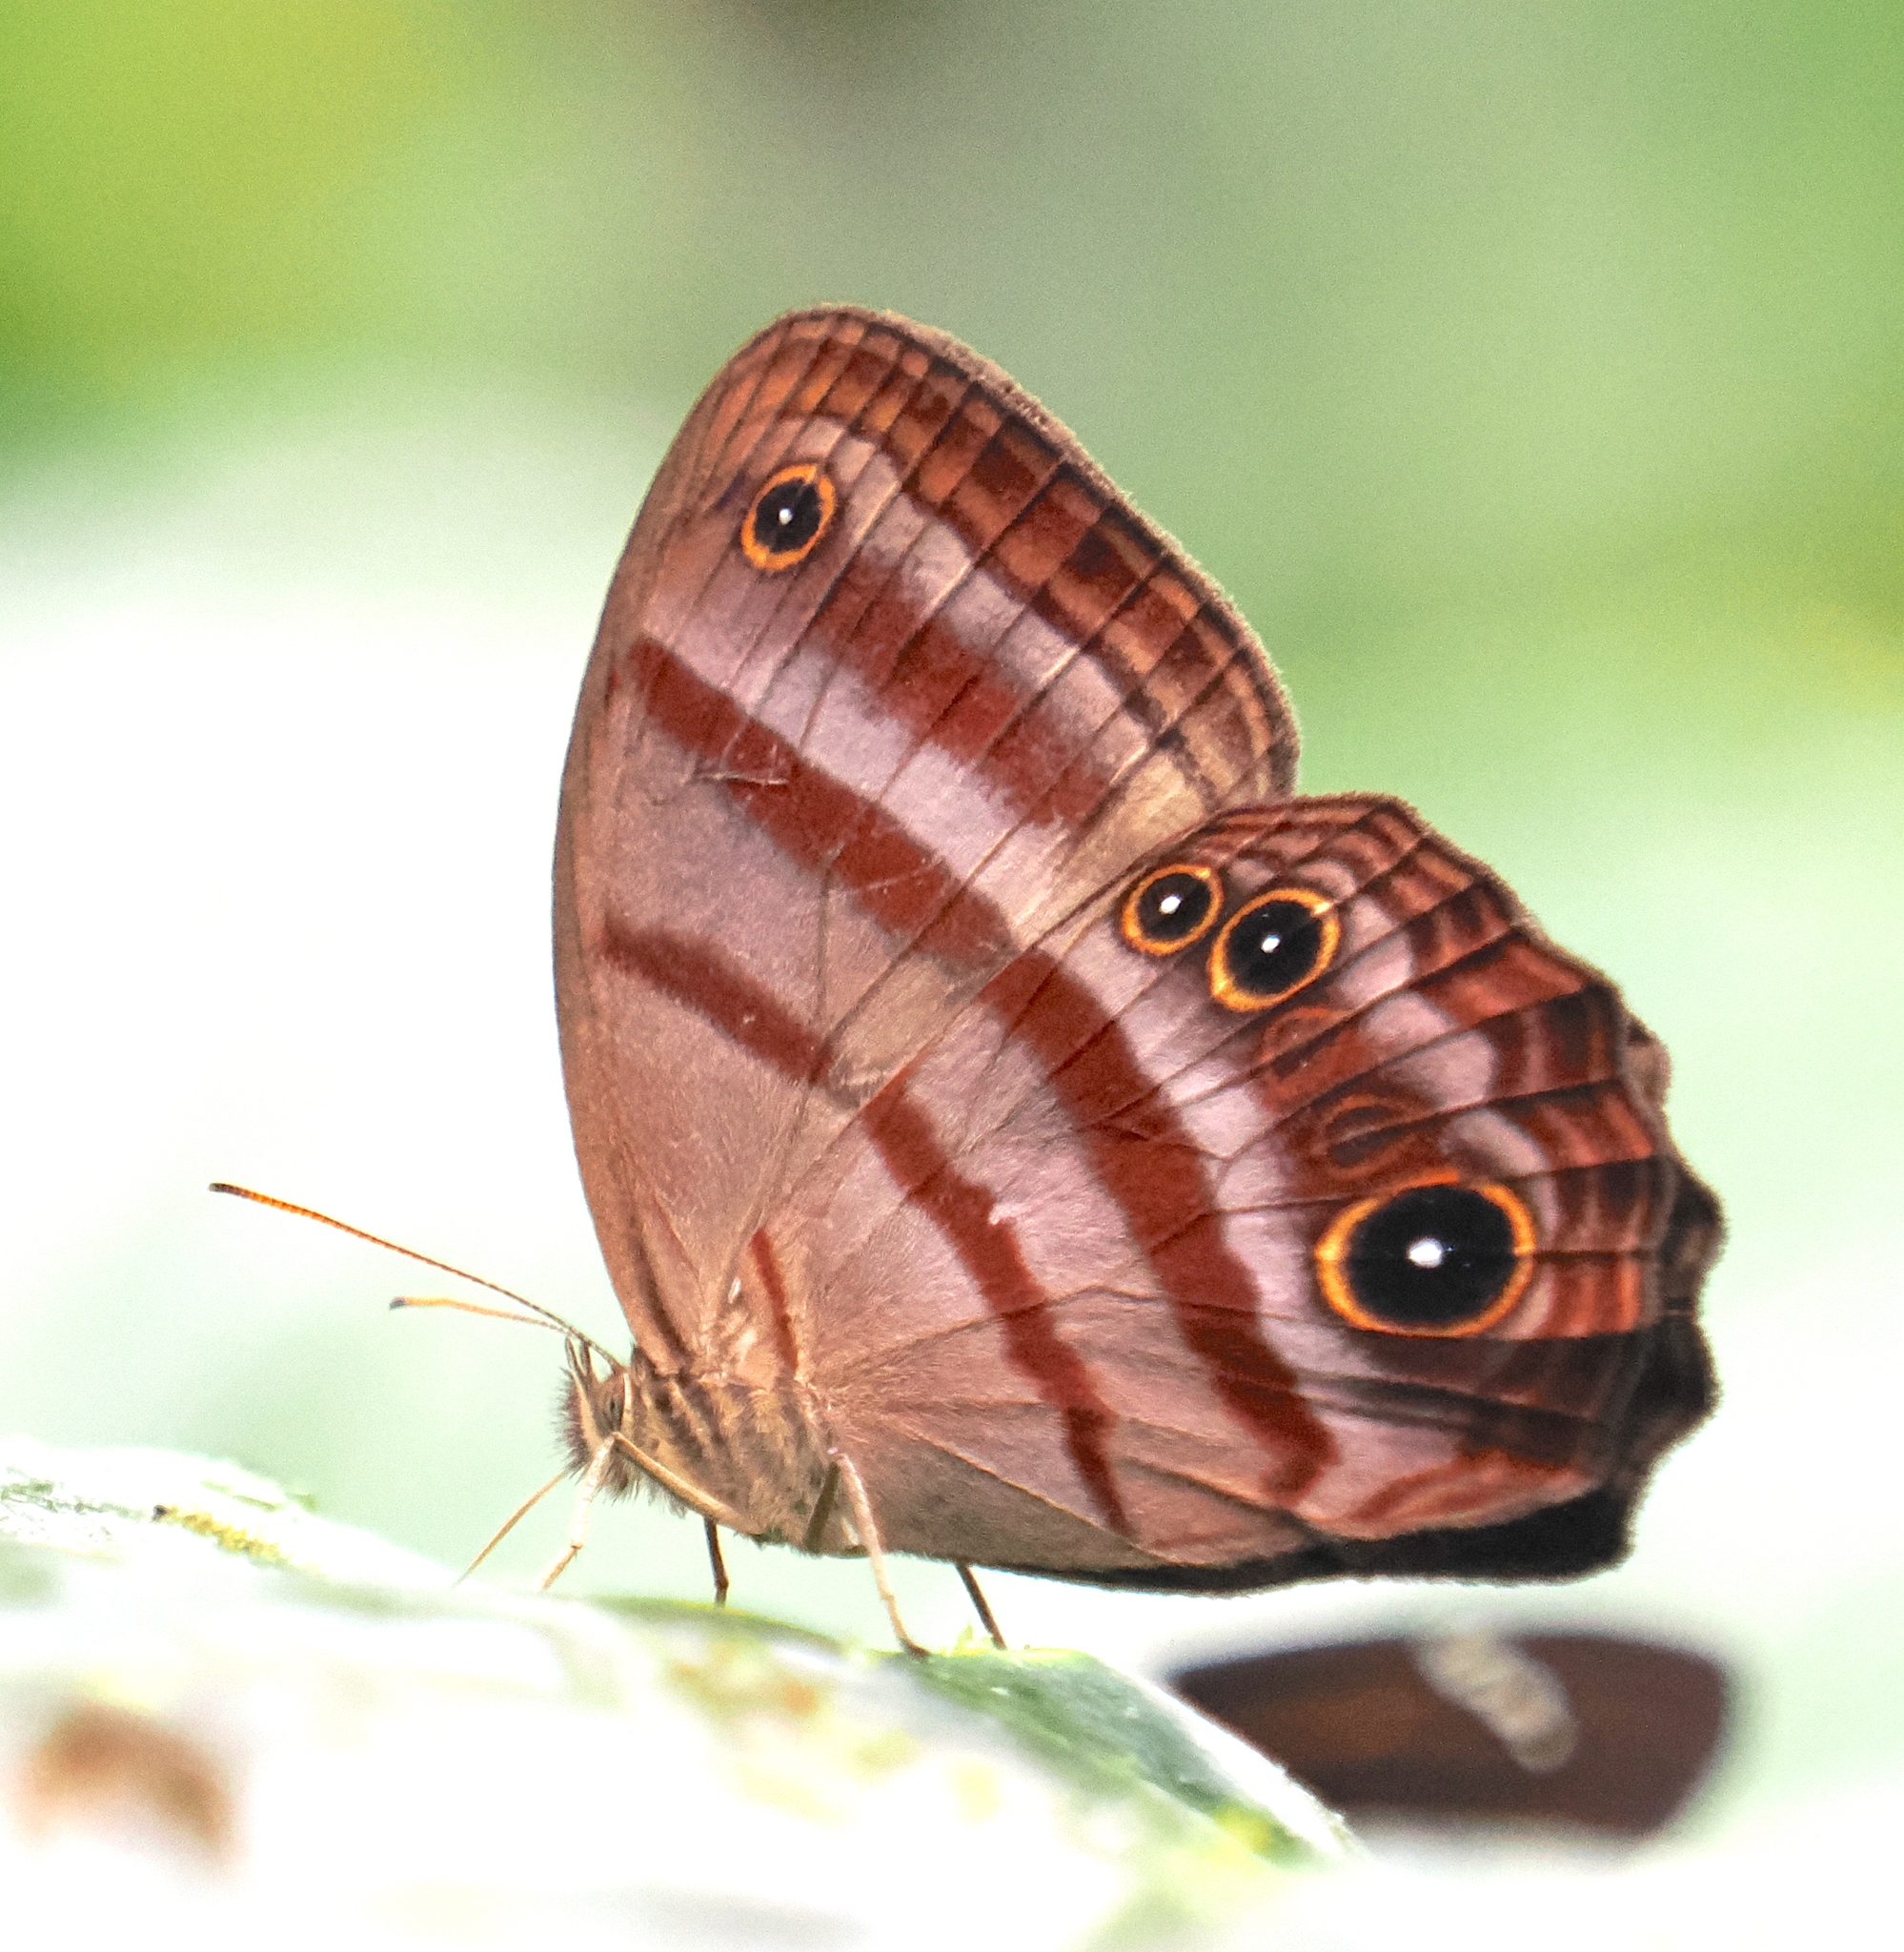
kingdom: Animalia
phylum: Arthropoda
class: Insecta
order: Lepidoptera
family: Nymphalidae
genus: Satyrotaygetis
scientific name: Satyrotaygetis
